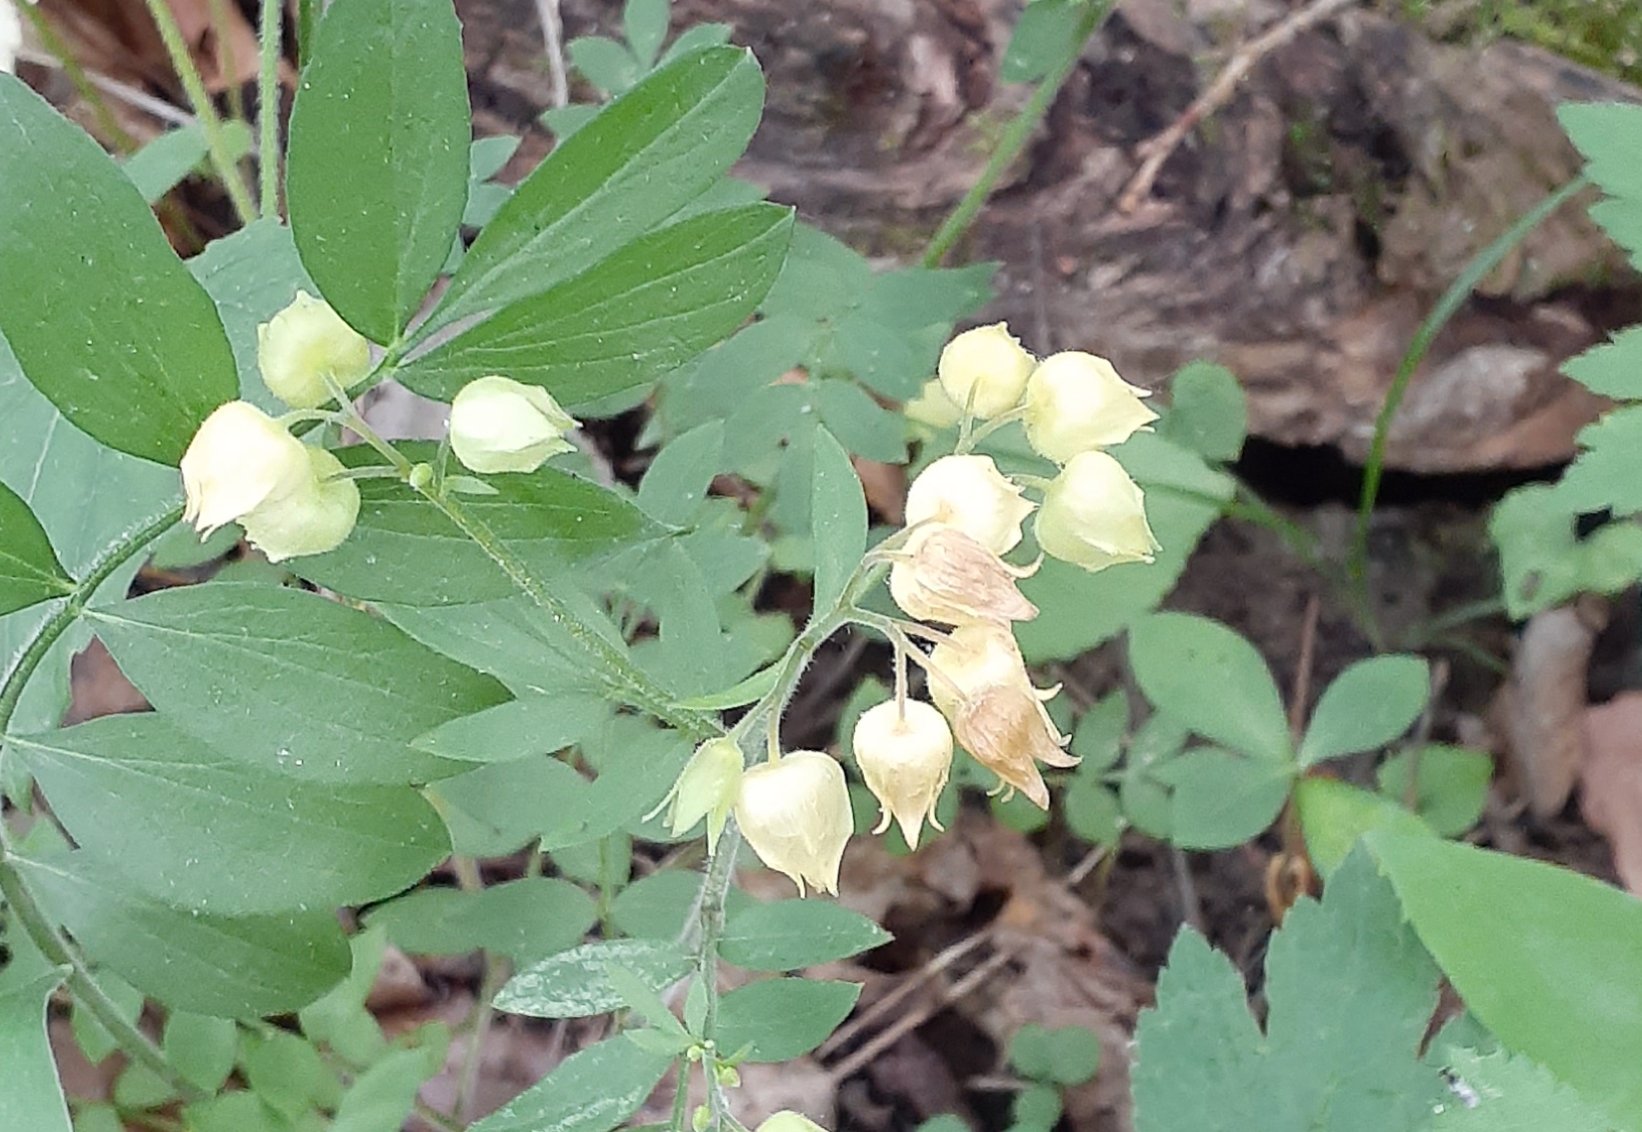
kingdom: Plantae
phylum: Tracheophyta
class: Magnoliopsida
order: Ericales
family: Polemoniaceae
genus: Polemonium
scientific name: Polemonium reptans
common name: Creeping jacob's-ladder
